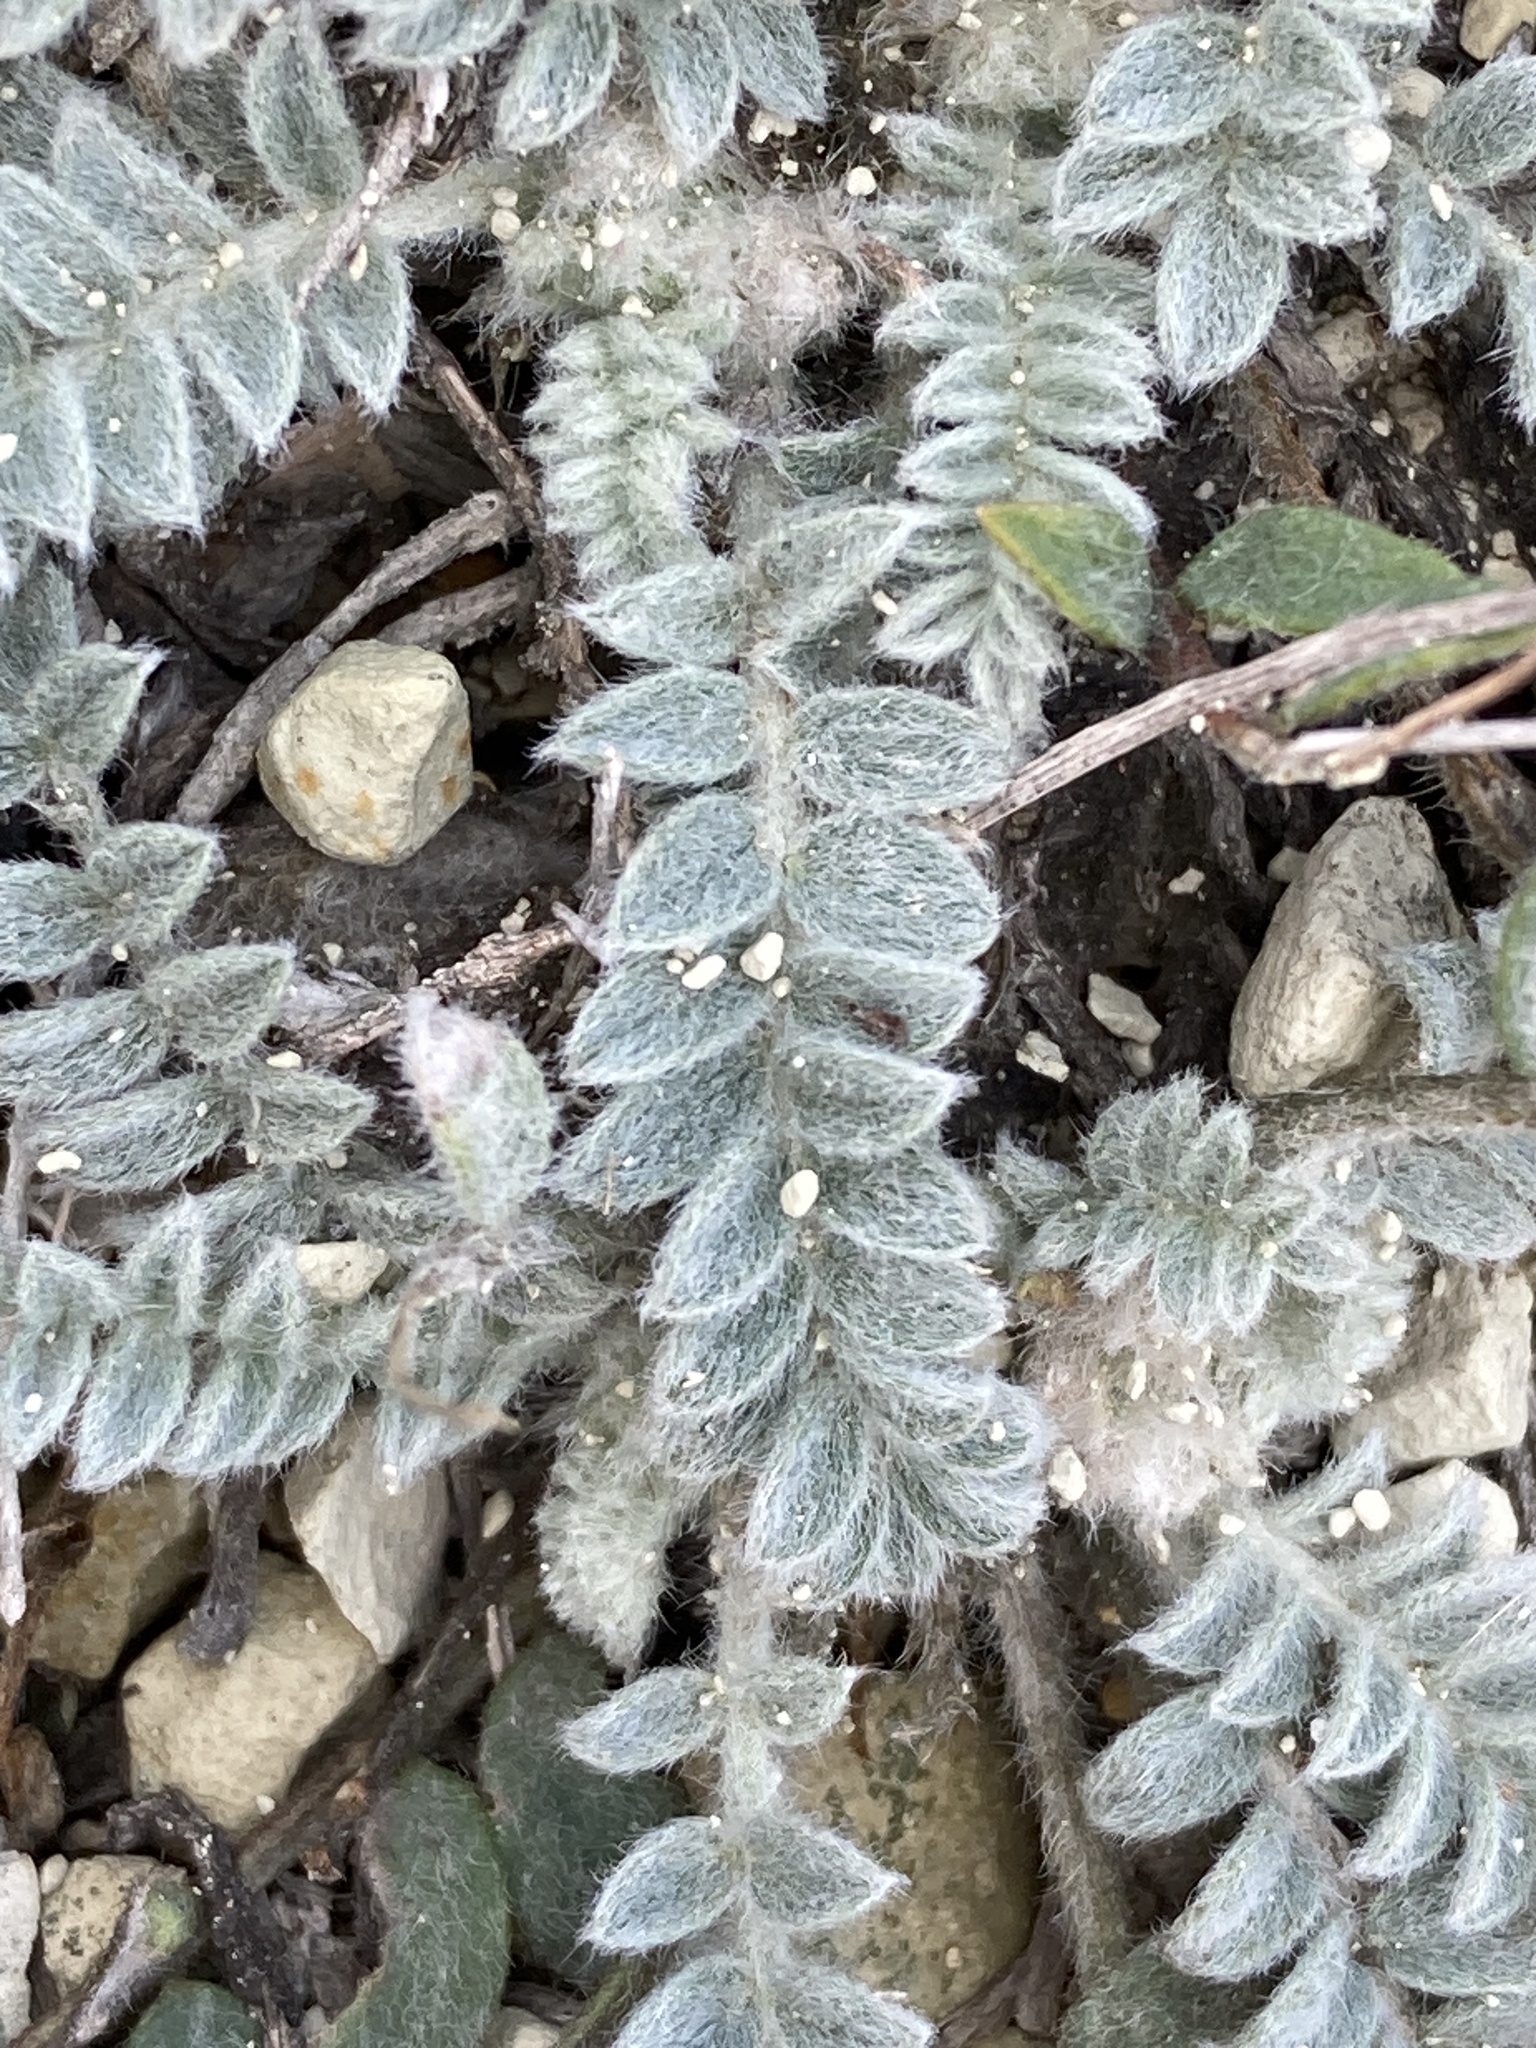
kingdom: Plantae
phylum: Tracheophyta
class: Magnoliopsida
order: Fabales
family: Fabaceae
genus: Astragalus
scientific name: Astragalus testiculatus
